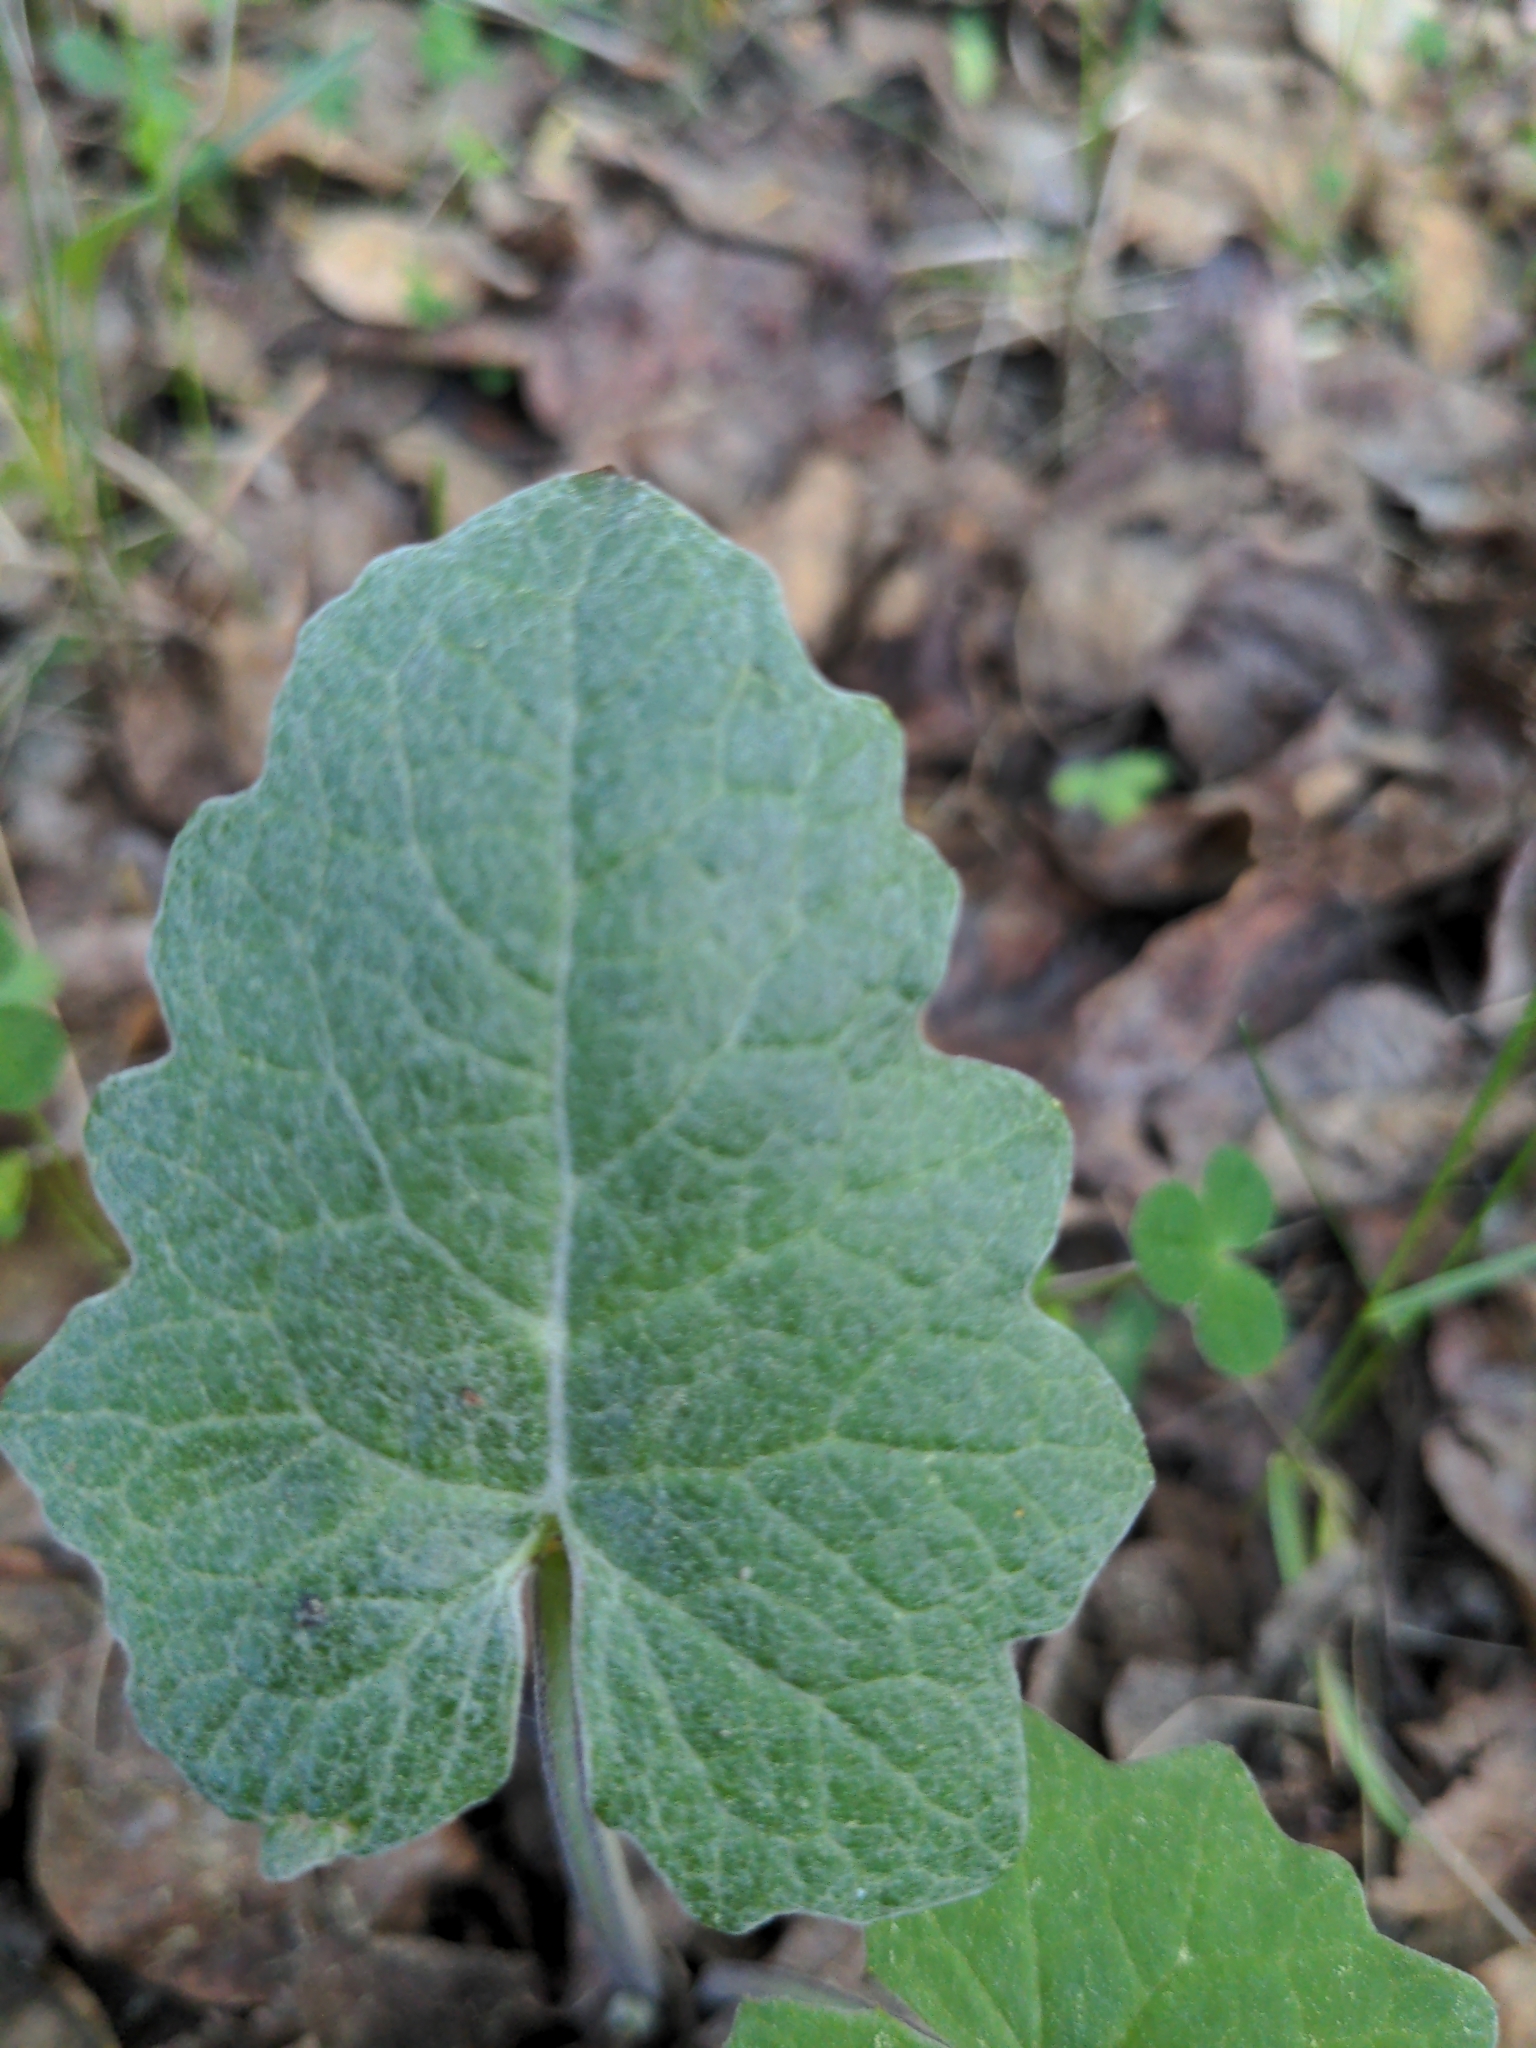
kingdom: Plantae
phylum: Tracheophyta
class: Magnoliopsida
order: Asterales
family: Asteraceae
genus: Petasites
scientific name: Petasites frigidus
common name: Arctic butterbur
